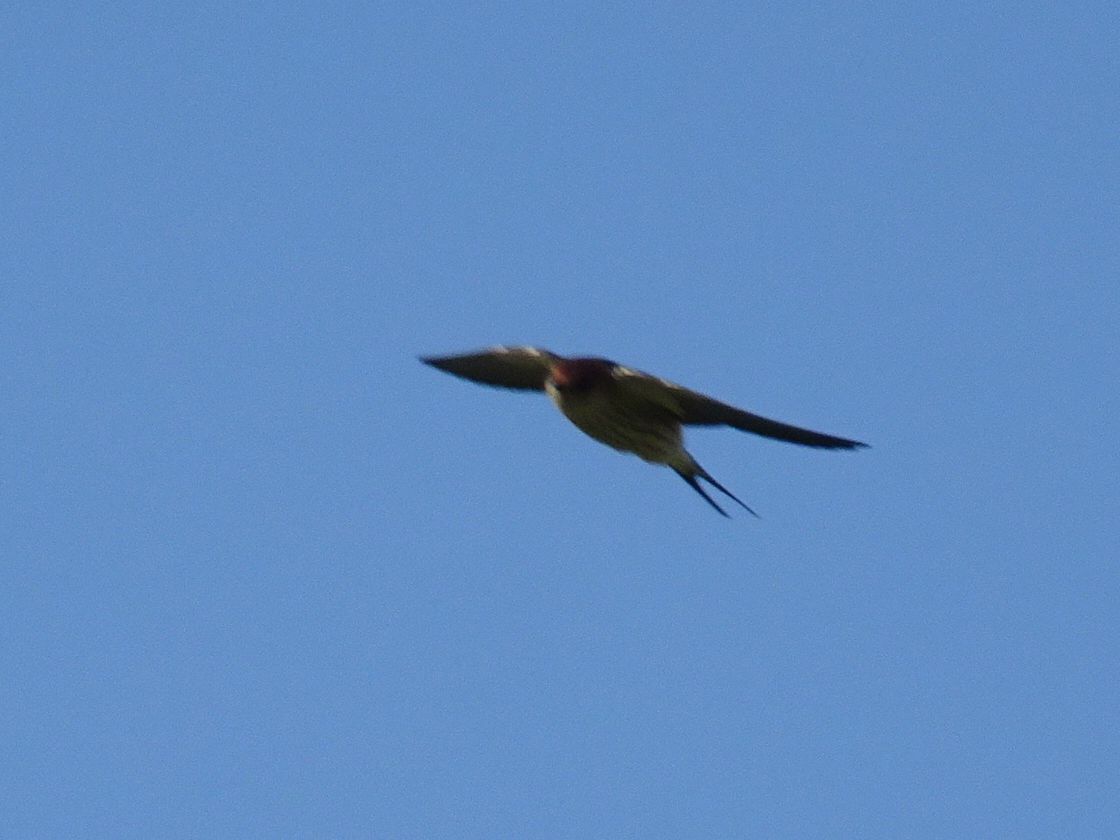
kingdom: Animalia
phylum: Chordata
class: Aves
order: Passeriformes
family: Hirundinidae
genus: Cecropis
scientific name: Cecropis cucullata
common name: Greater striped-swallow
